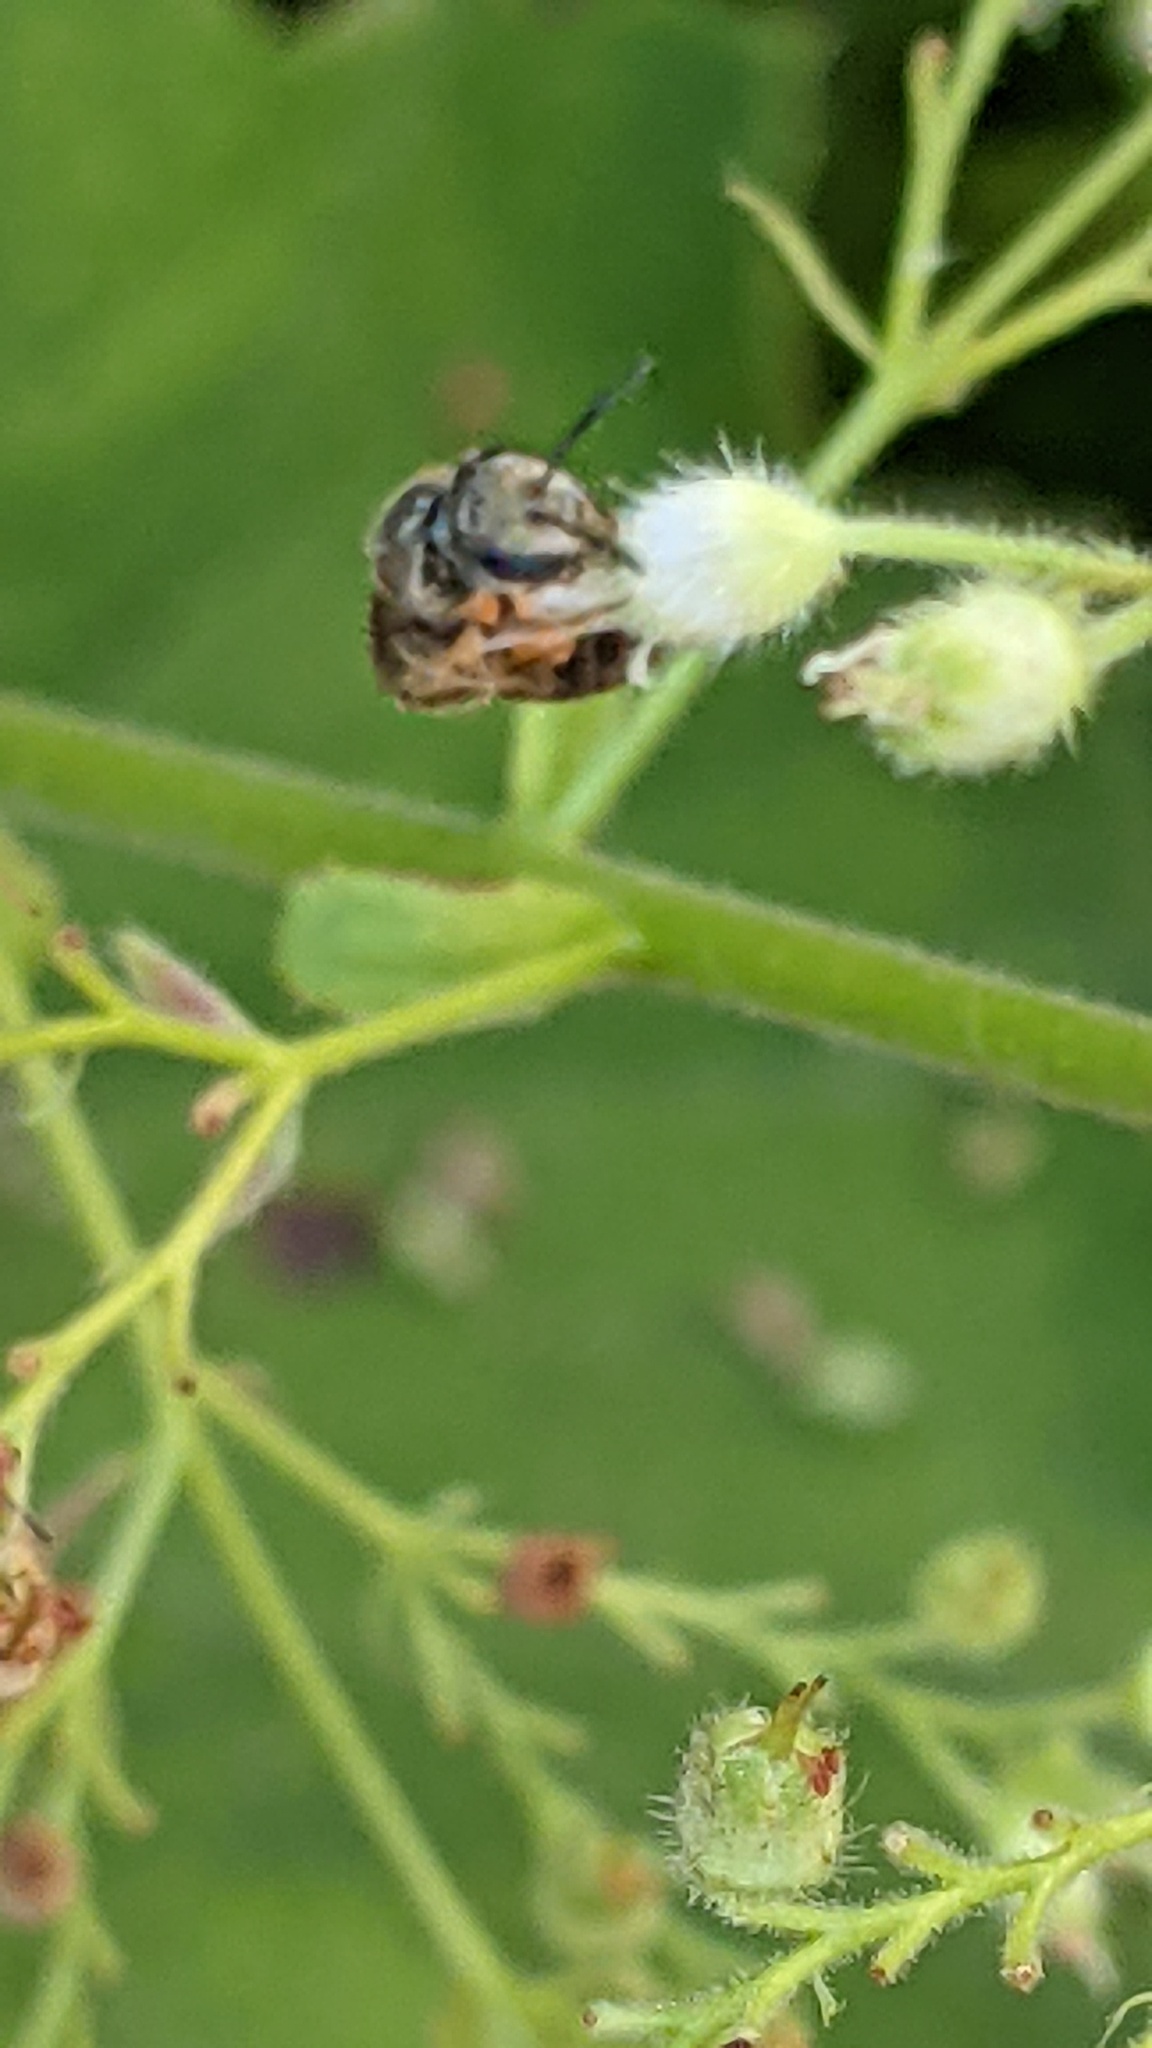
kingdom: Animalia
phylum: Arthropoda
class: Insecta
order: Hymenoptera
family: Halictidae
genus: Dialictus
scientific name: Dialictus
